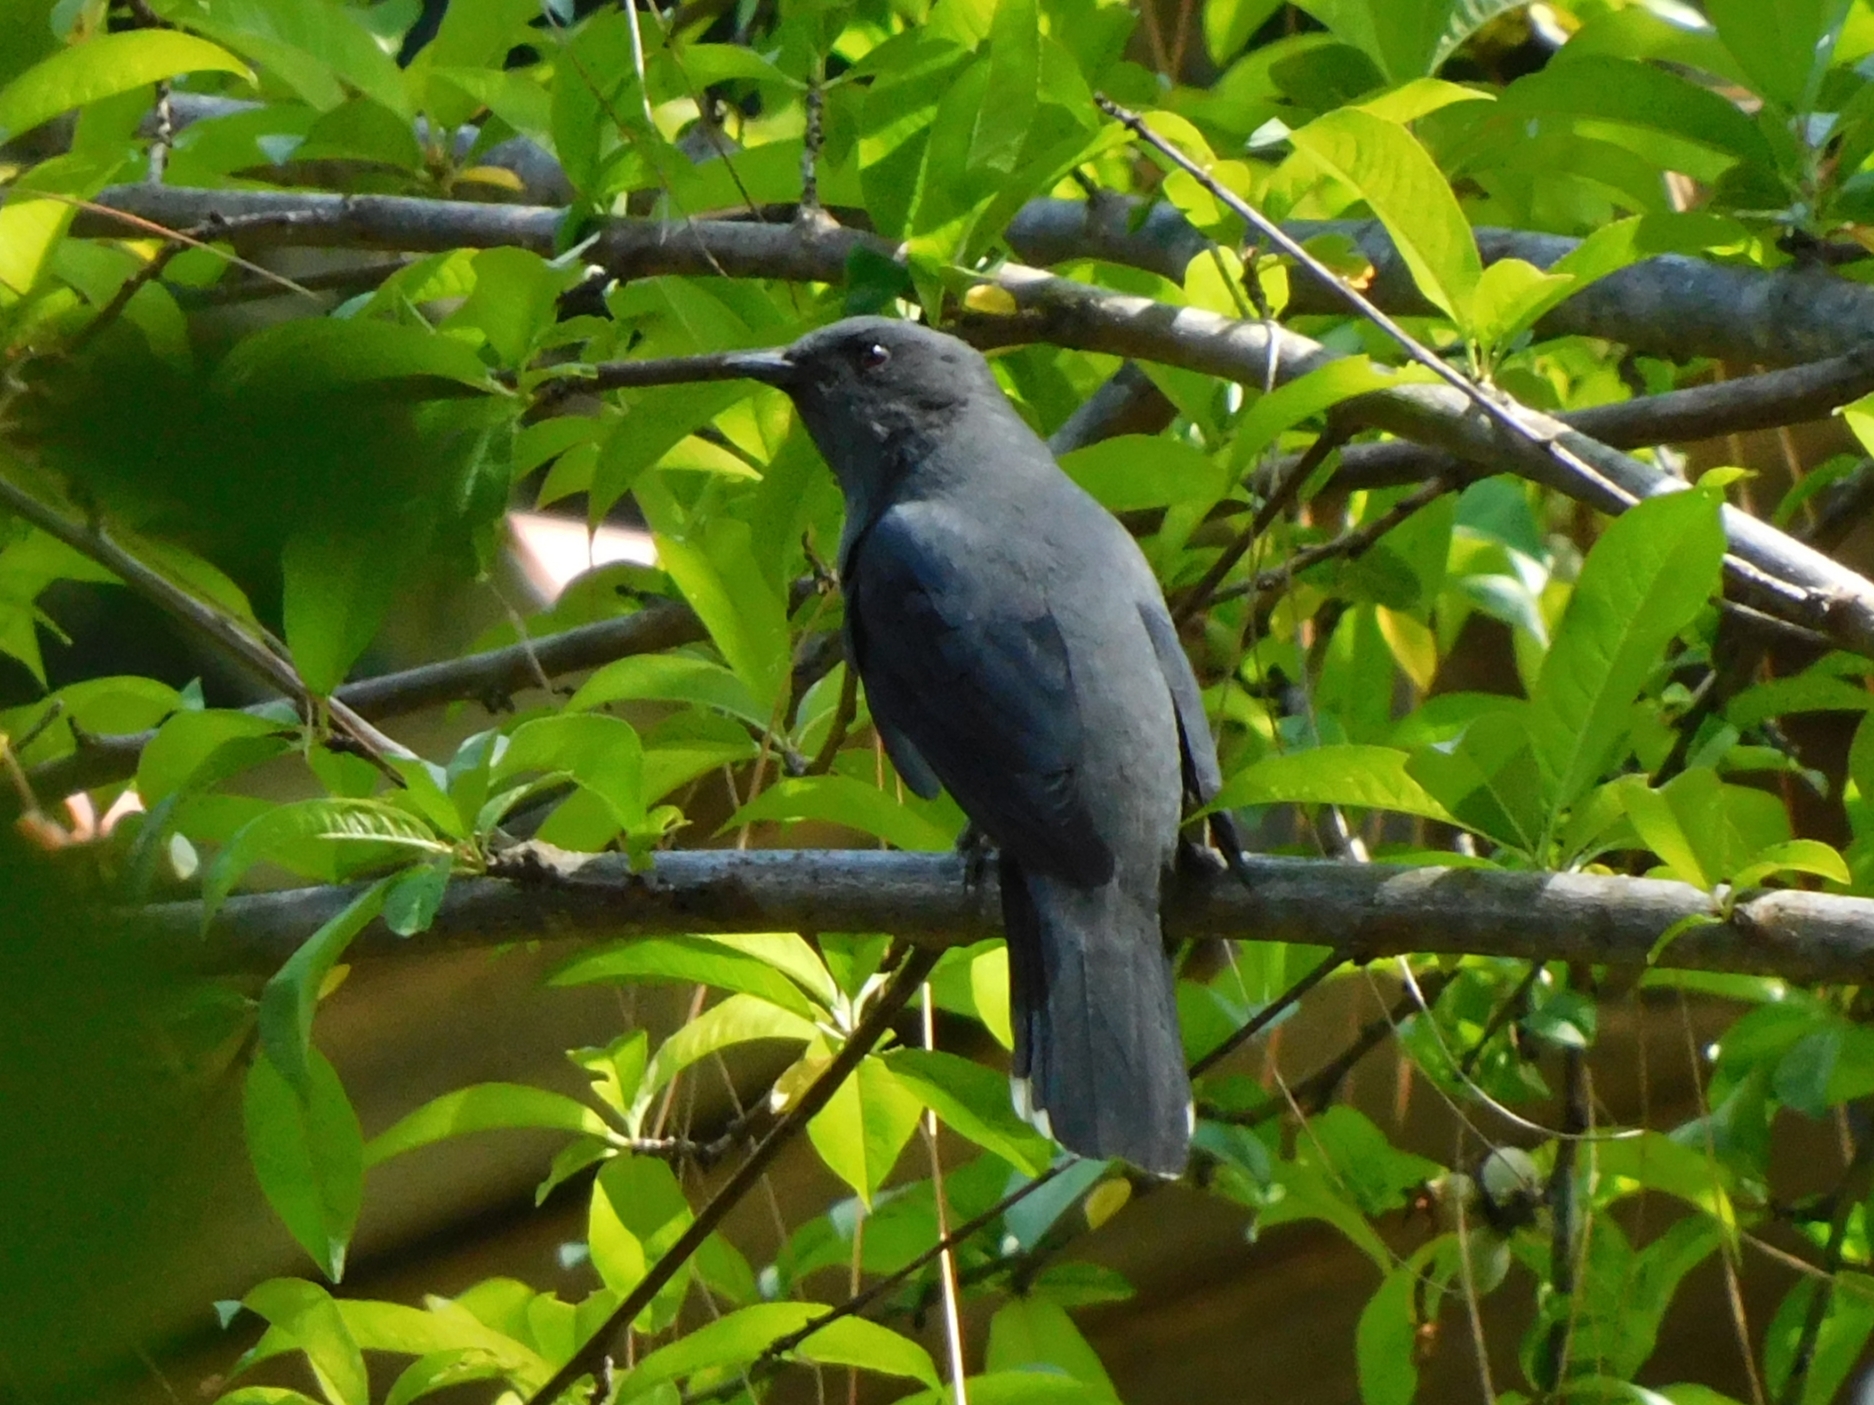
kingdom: Animalia
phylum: Chordata
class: Aves
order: Passeriformes
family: Campephagidae
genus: Coracina
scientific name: Coracina melaschistos
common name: Black-winged cuckooshrike
